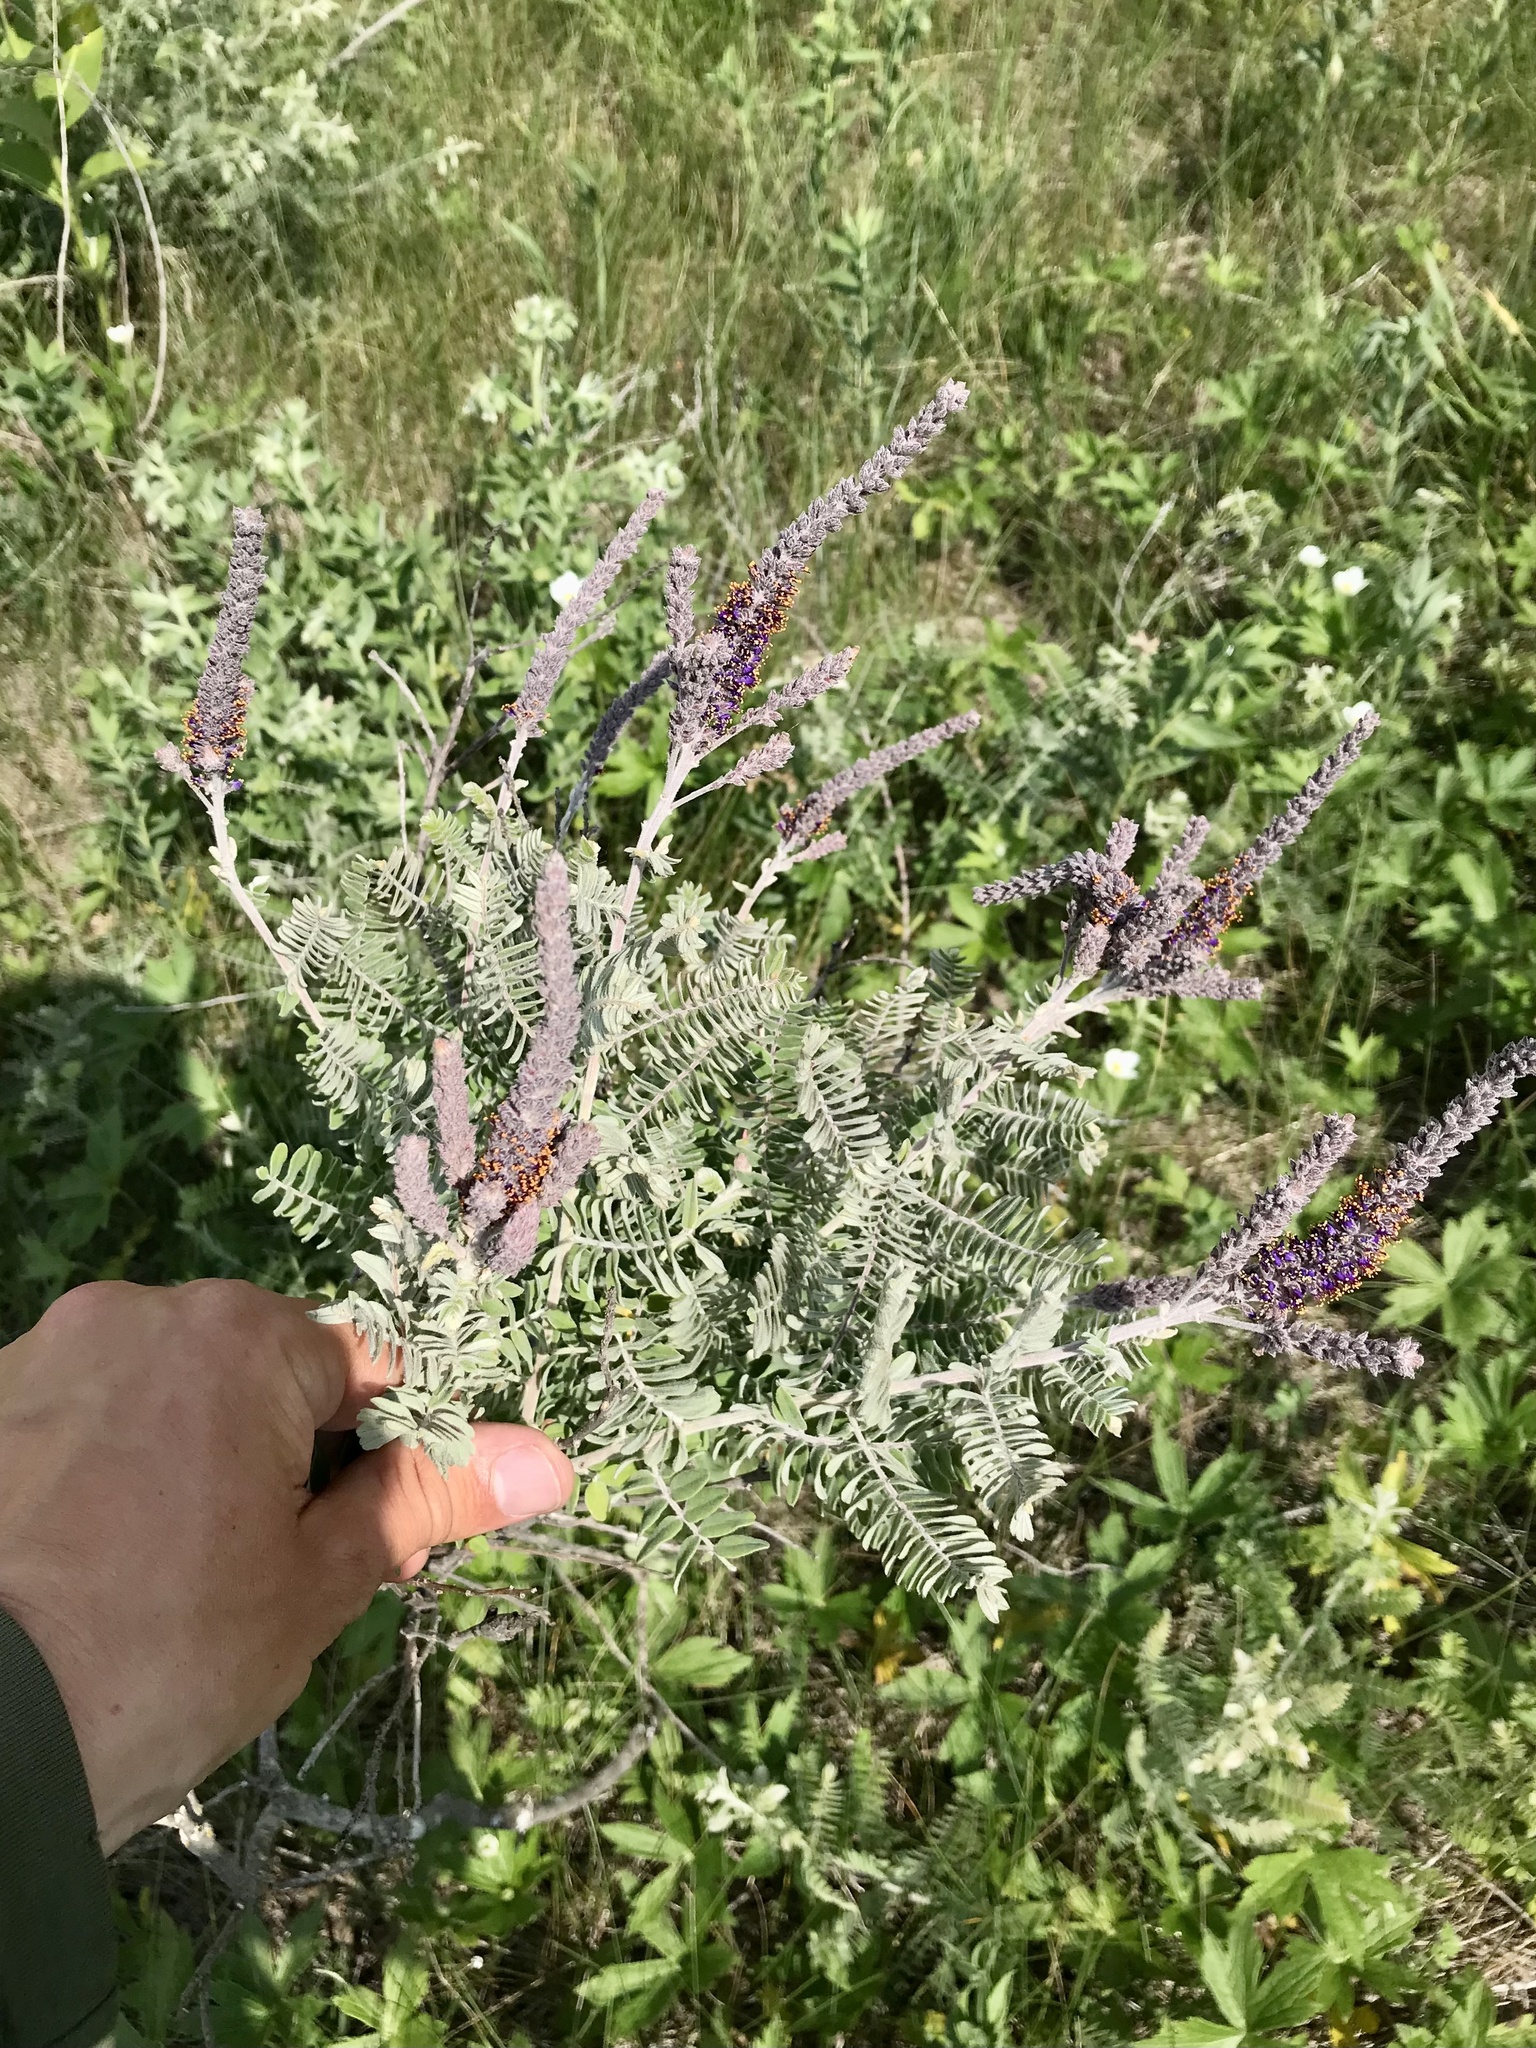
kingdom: Plantae
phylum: Tracheophyta
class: Magnoliopsida
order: Fabales
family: Fabaceae
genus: Amorpha
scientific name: Amorpha canescens
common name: Leadplant
